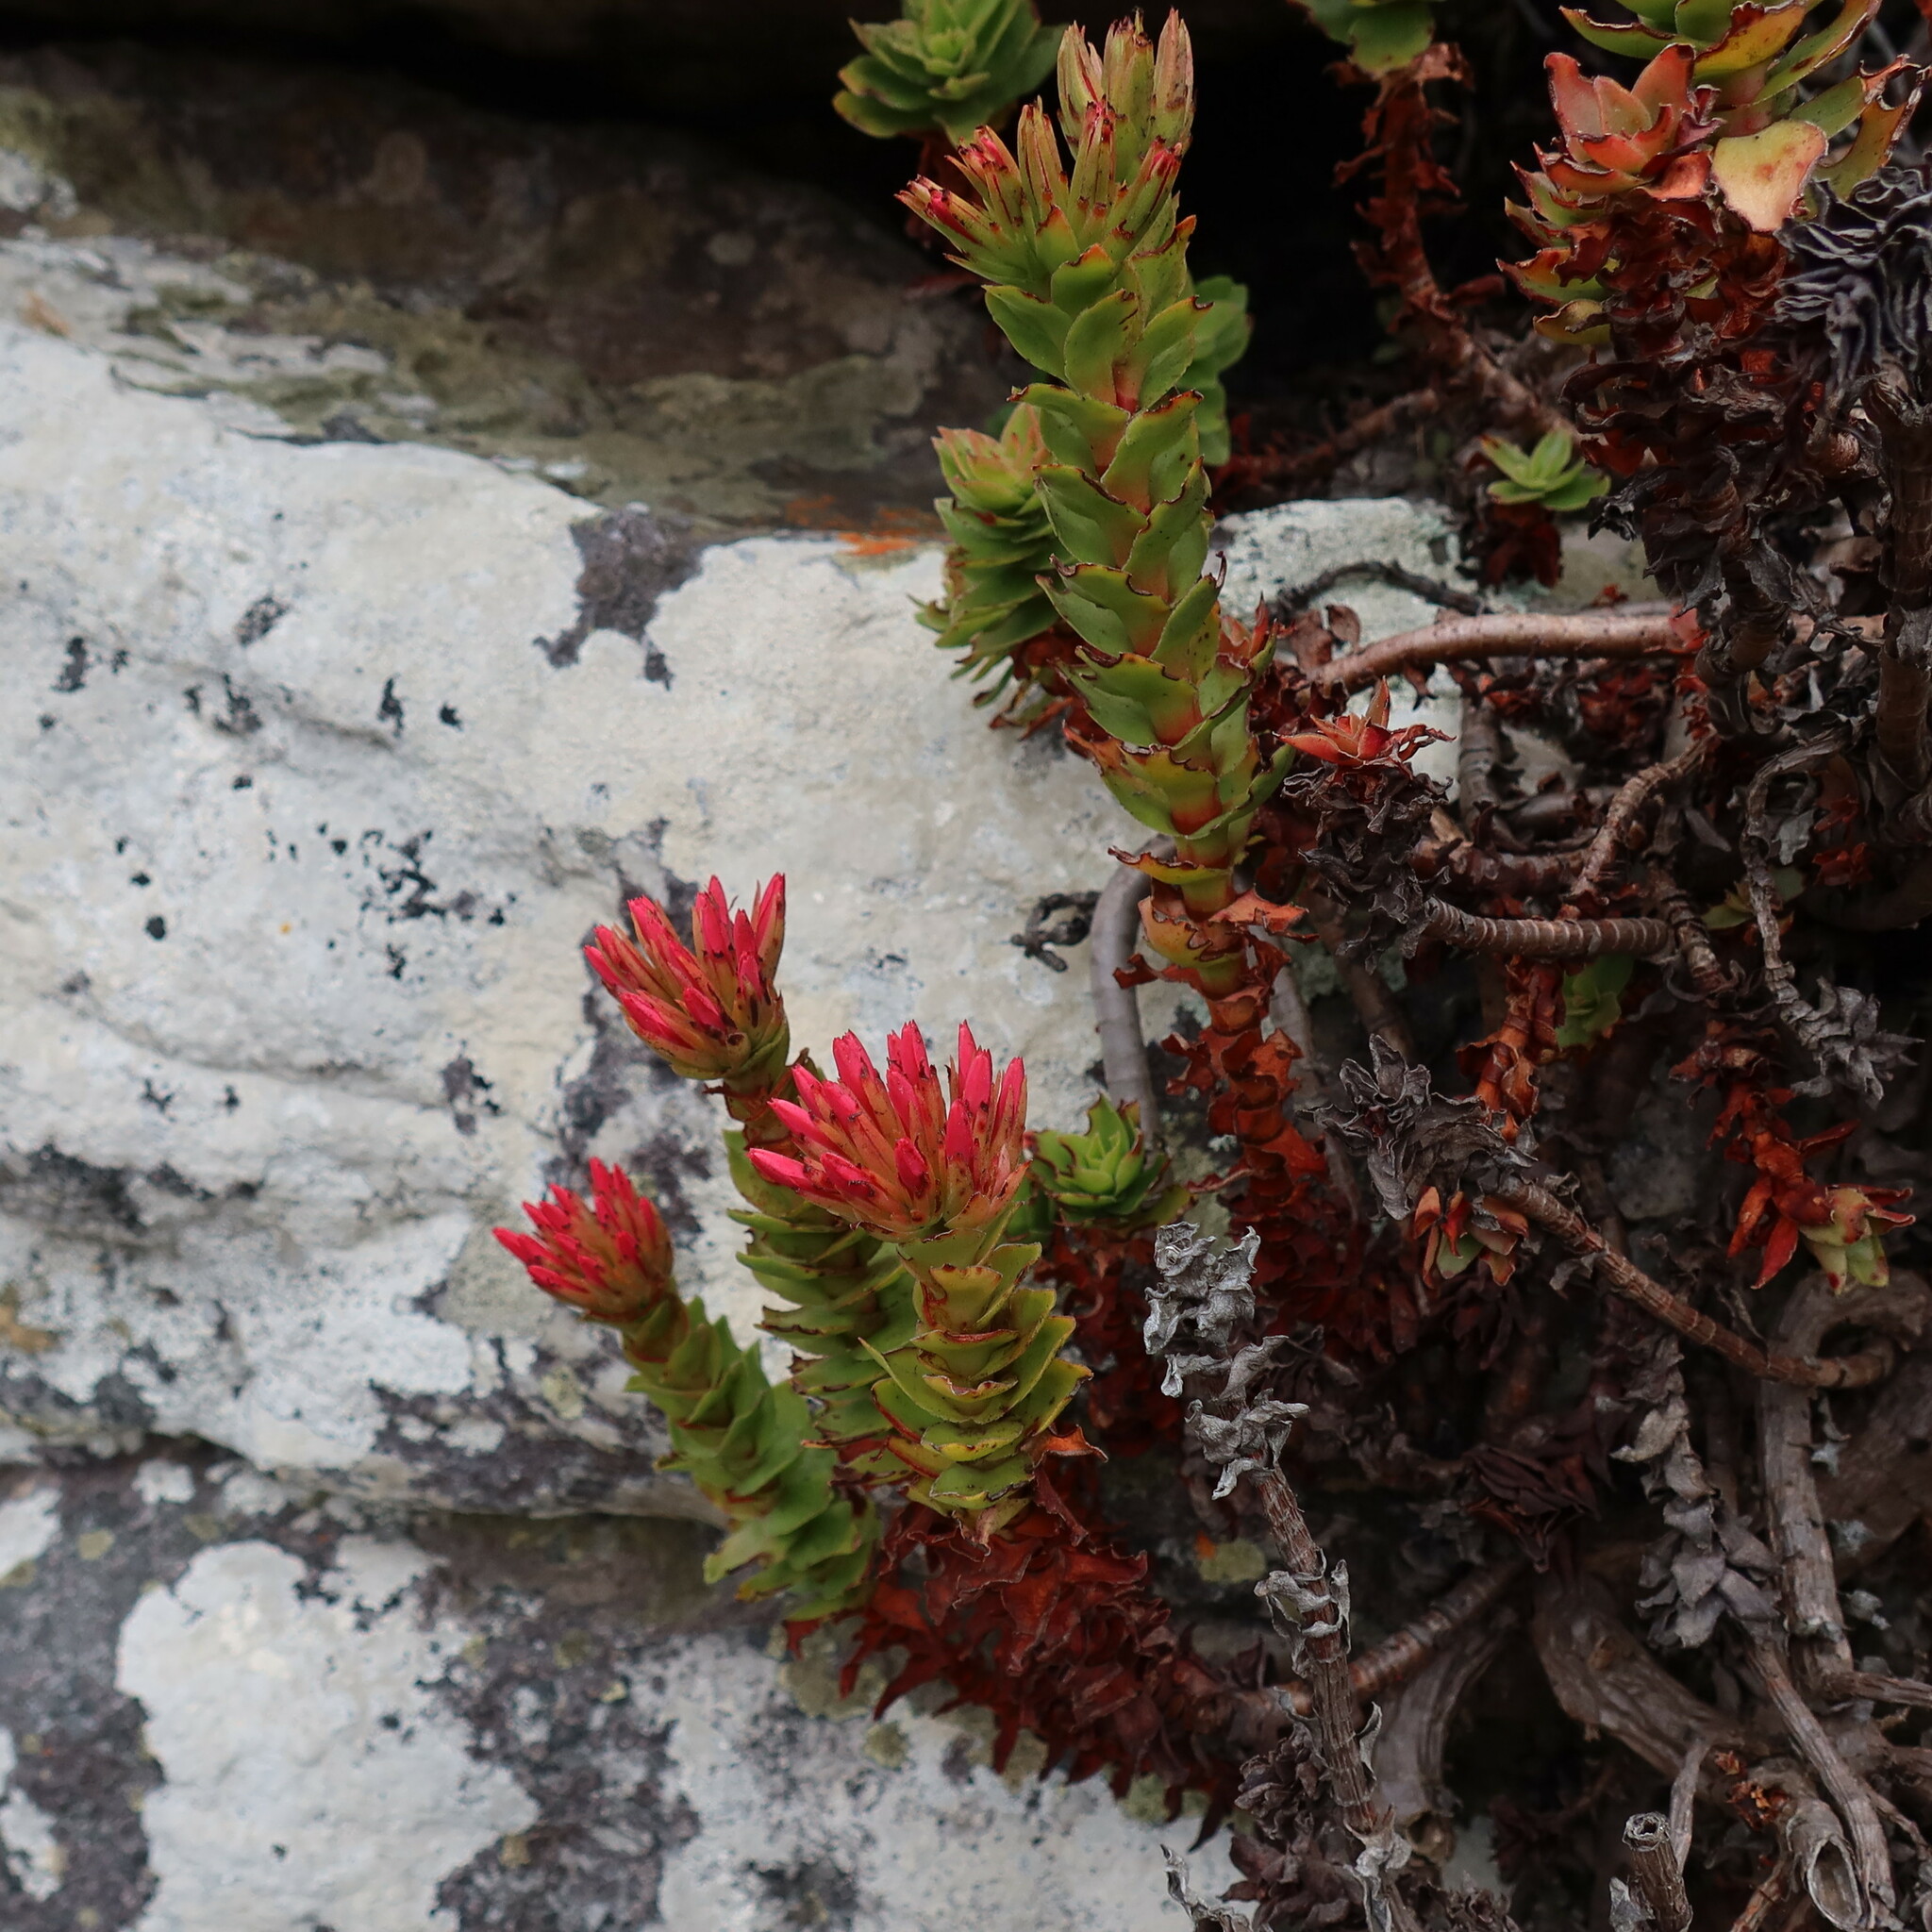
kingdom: Plantae
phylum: Tracheophyta
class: Magnoliopsida
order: Saxifragales
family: Crassulaceae
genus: Crassula
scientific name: Crassula coccinea
